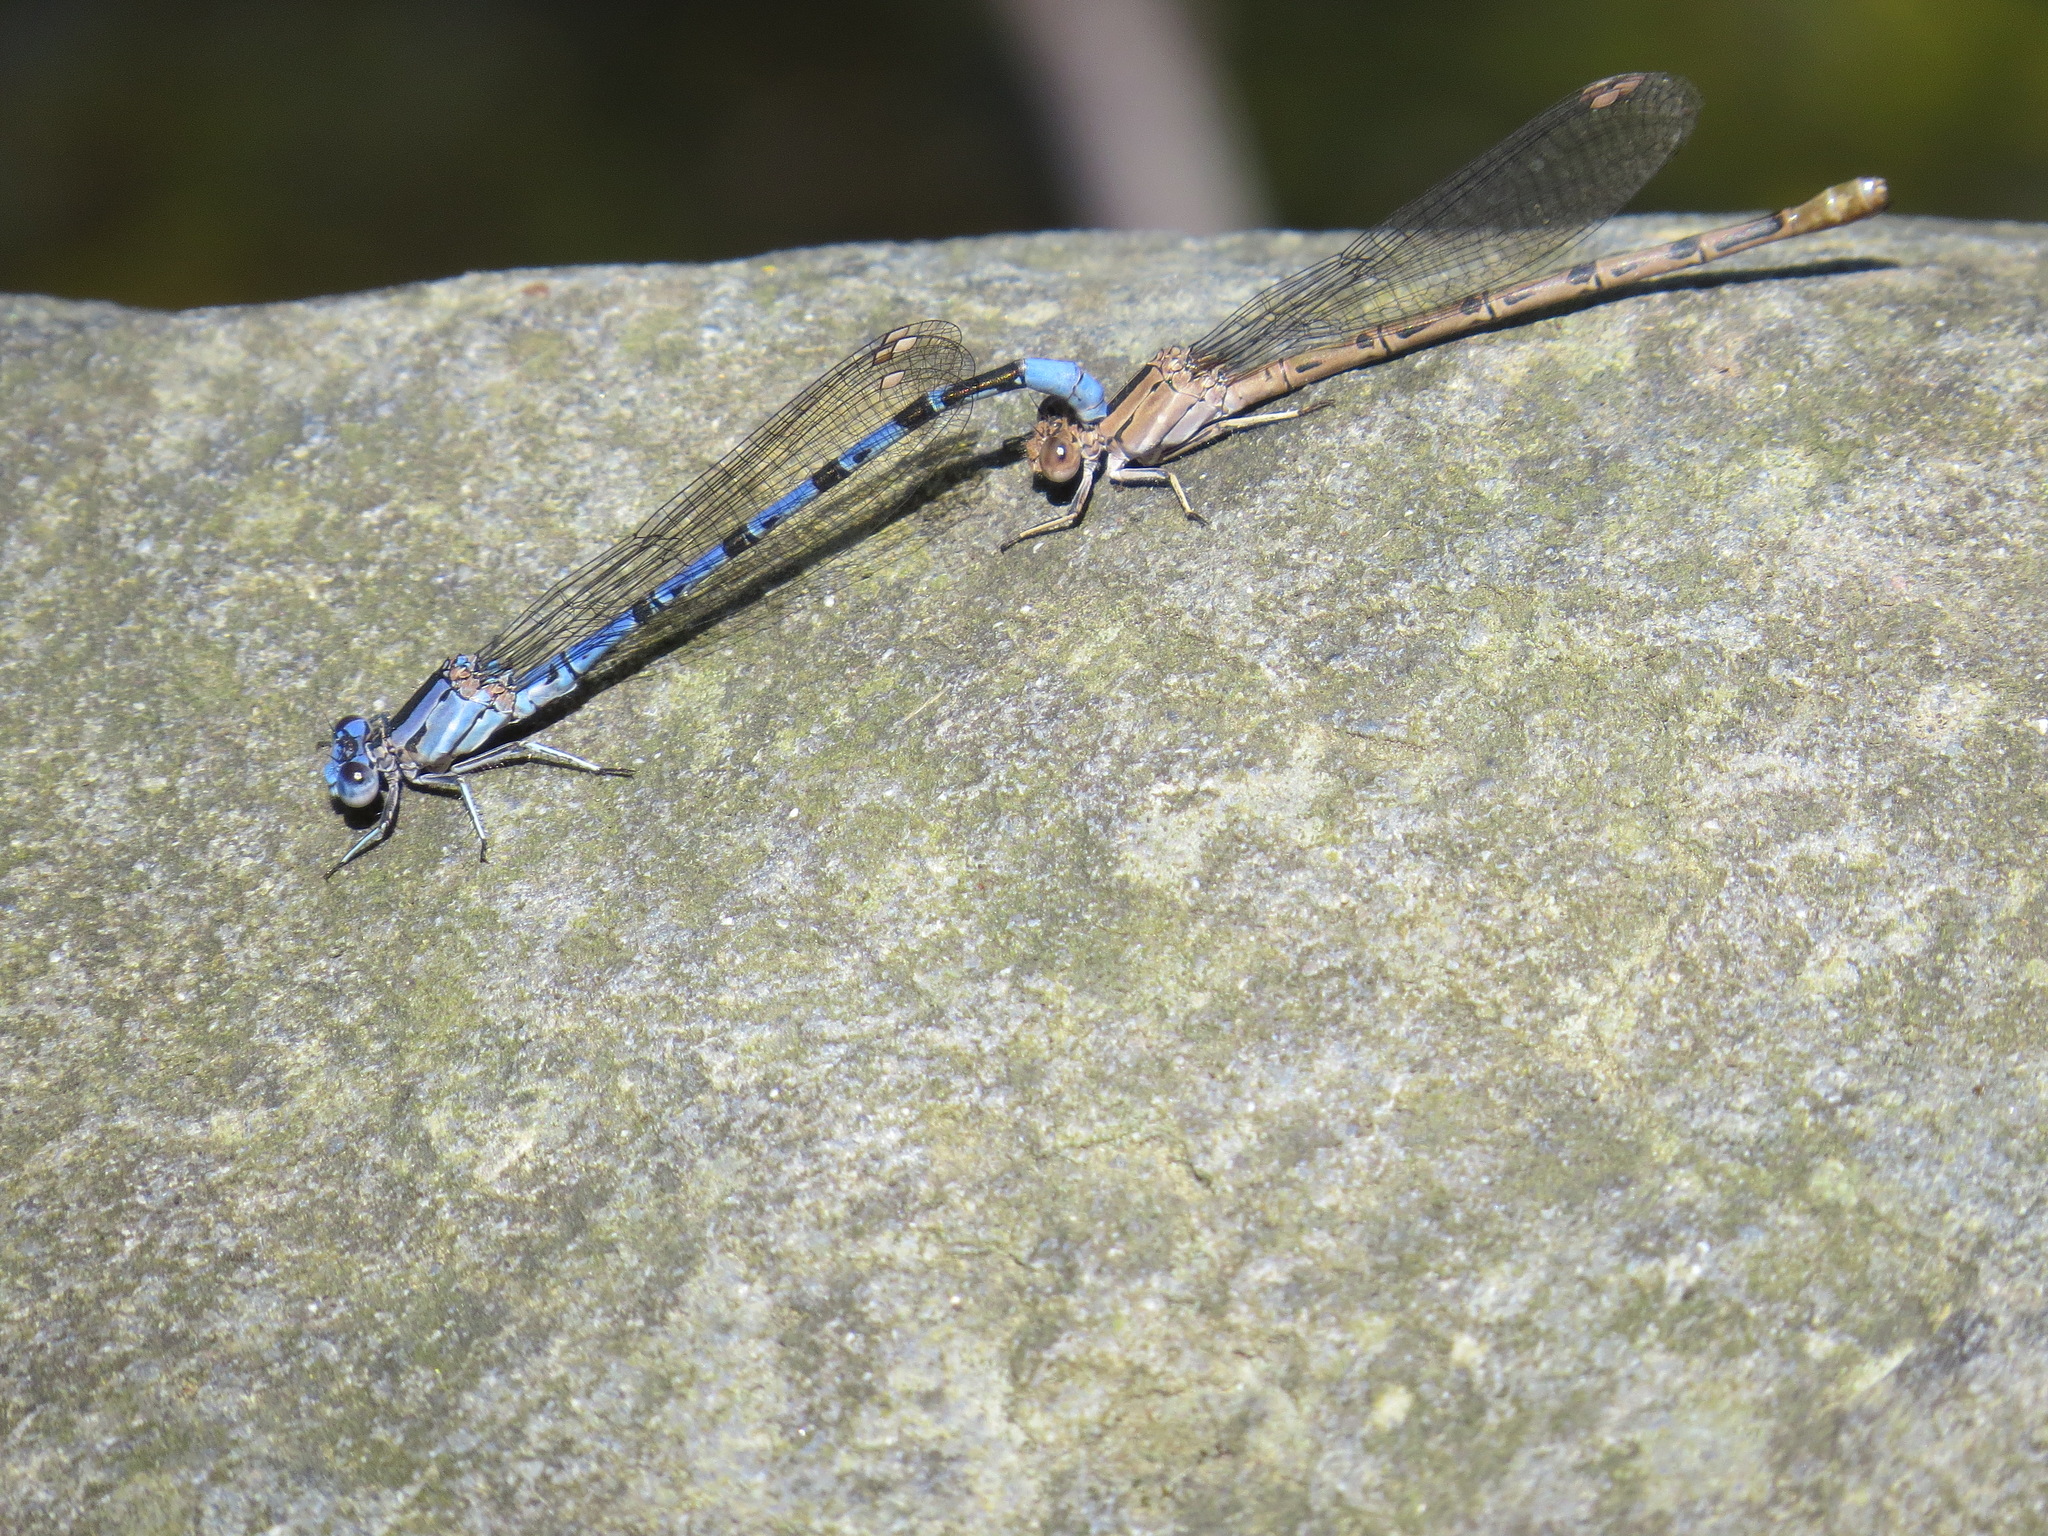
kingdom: Animalia
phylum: Arthropoda
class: Insecta
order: Odonata
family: Coenagrionidae
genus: Argia
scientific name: Argia vivida
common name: Vivid dancer
